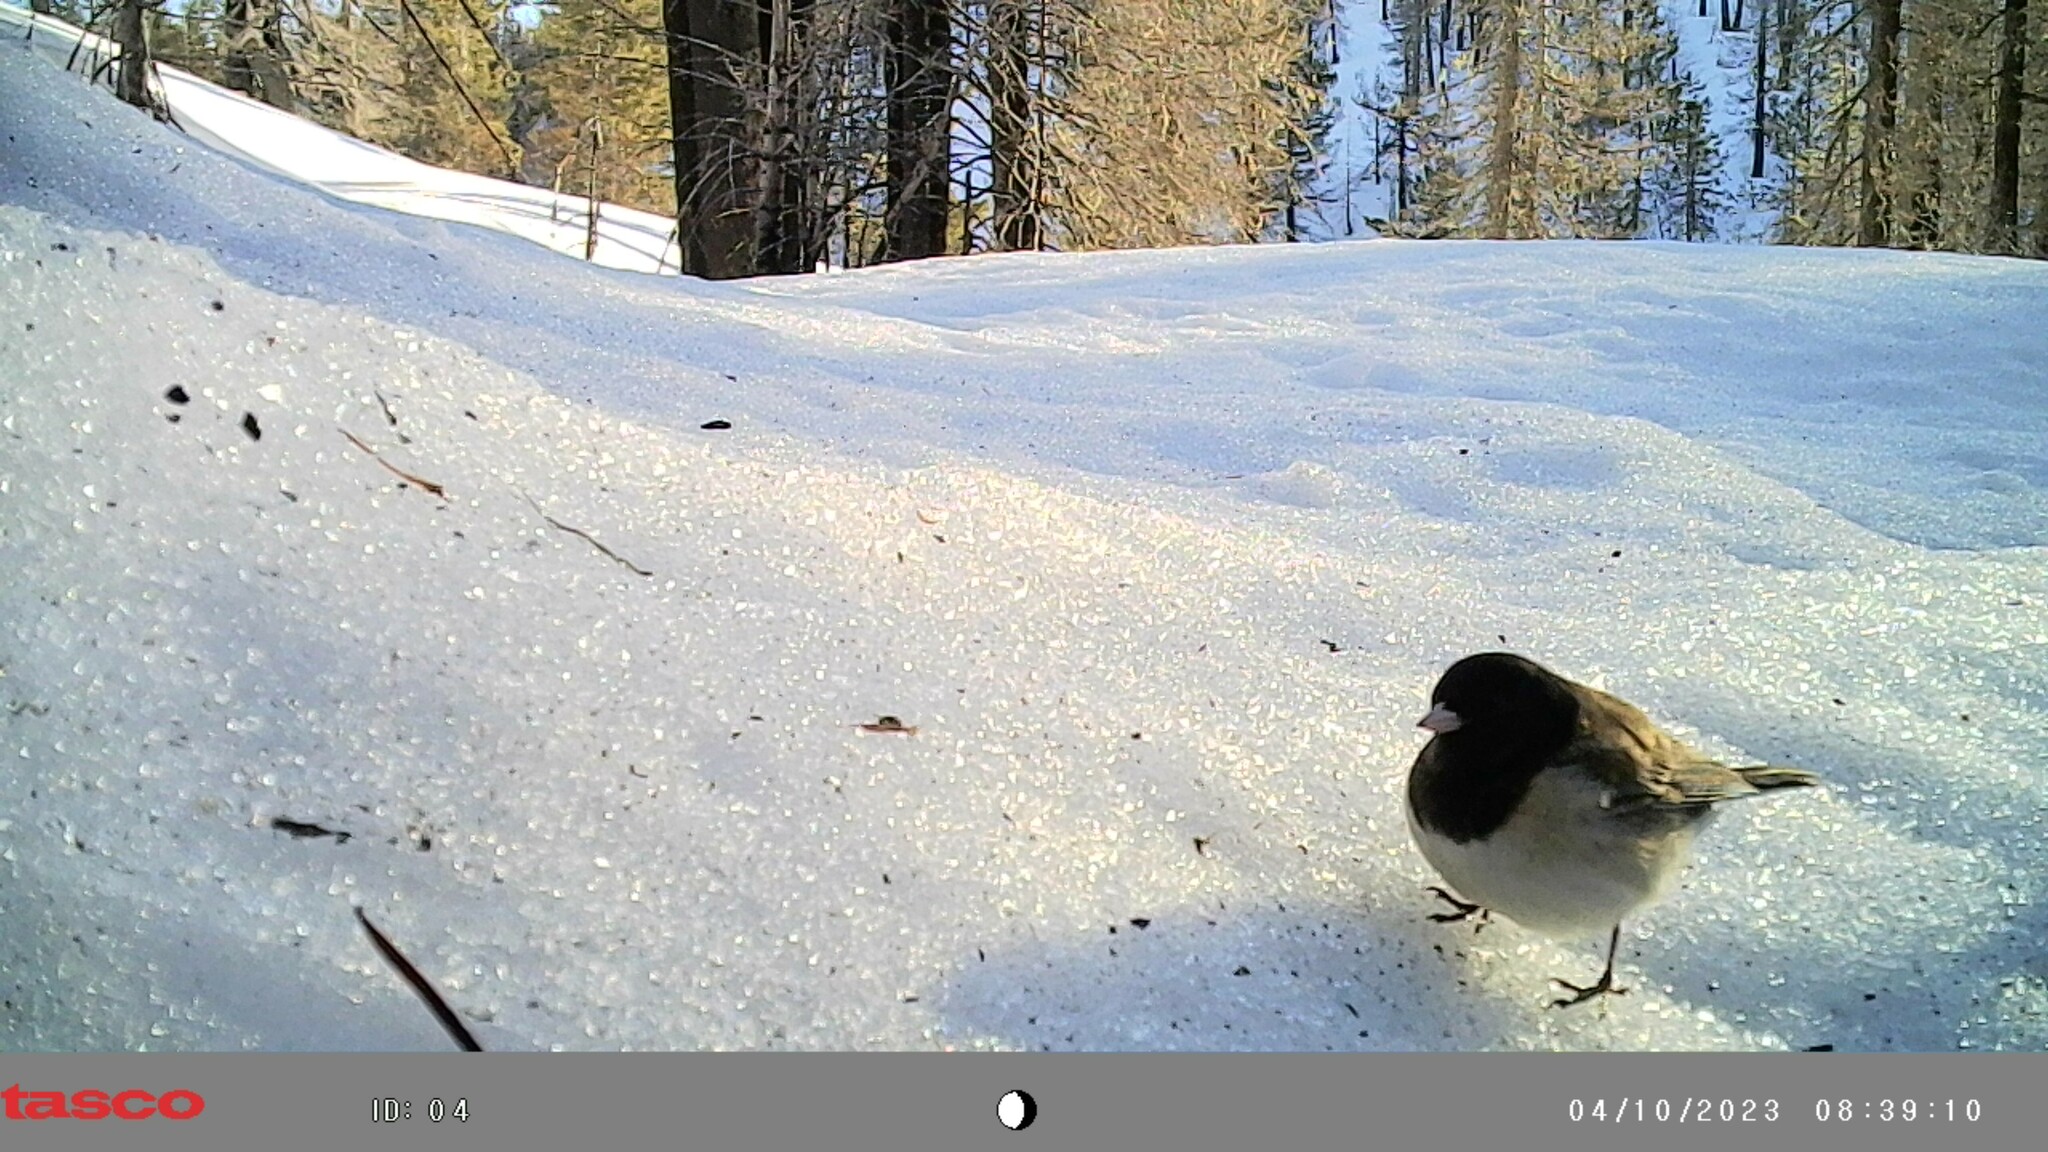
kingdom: Animalia
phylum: Chordata
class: Aves
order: Passeriformes
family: Passerellidae
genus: Junco
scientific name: Junco hyemalis
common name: Dark-eyed junco
